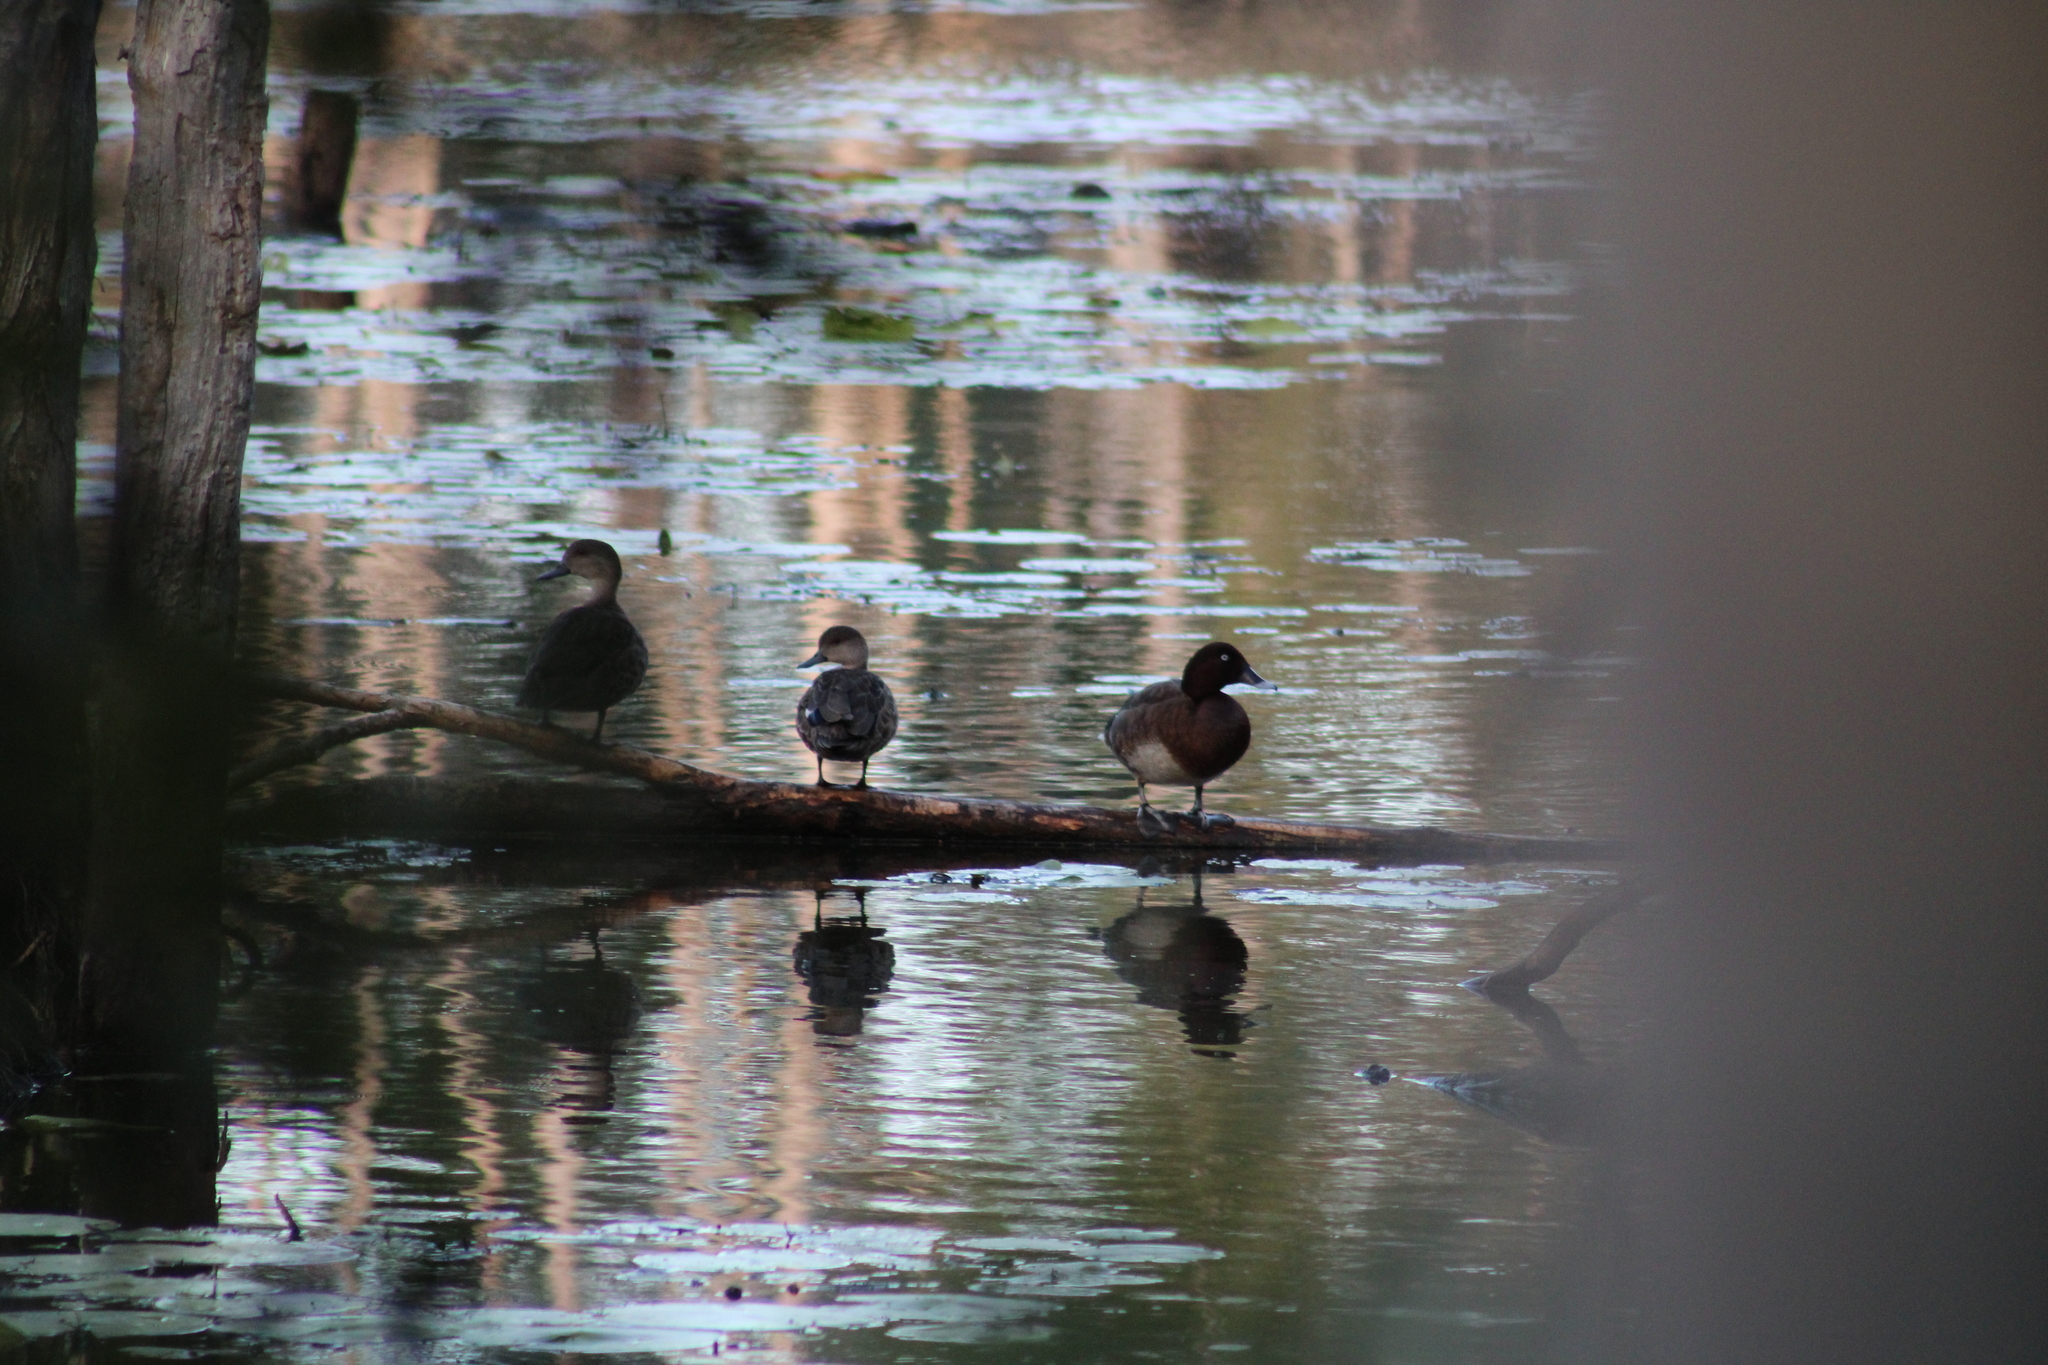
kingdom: Animalia
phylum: Chordata
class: Aves
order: Anseriformes
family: Anatidae
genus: Aythya
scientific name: Aythya australis
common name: Hardhead
